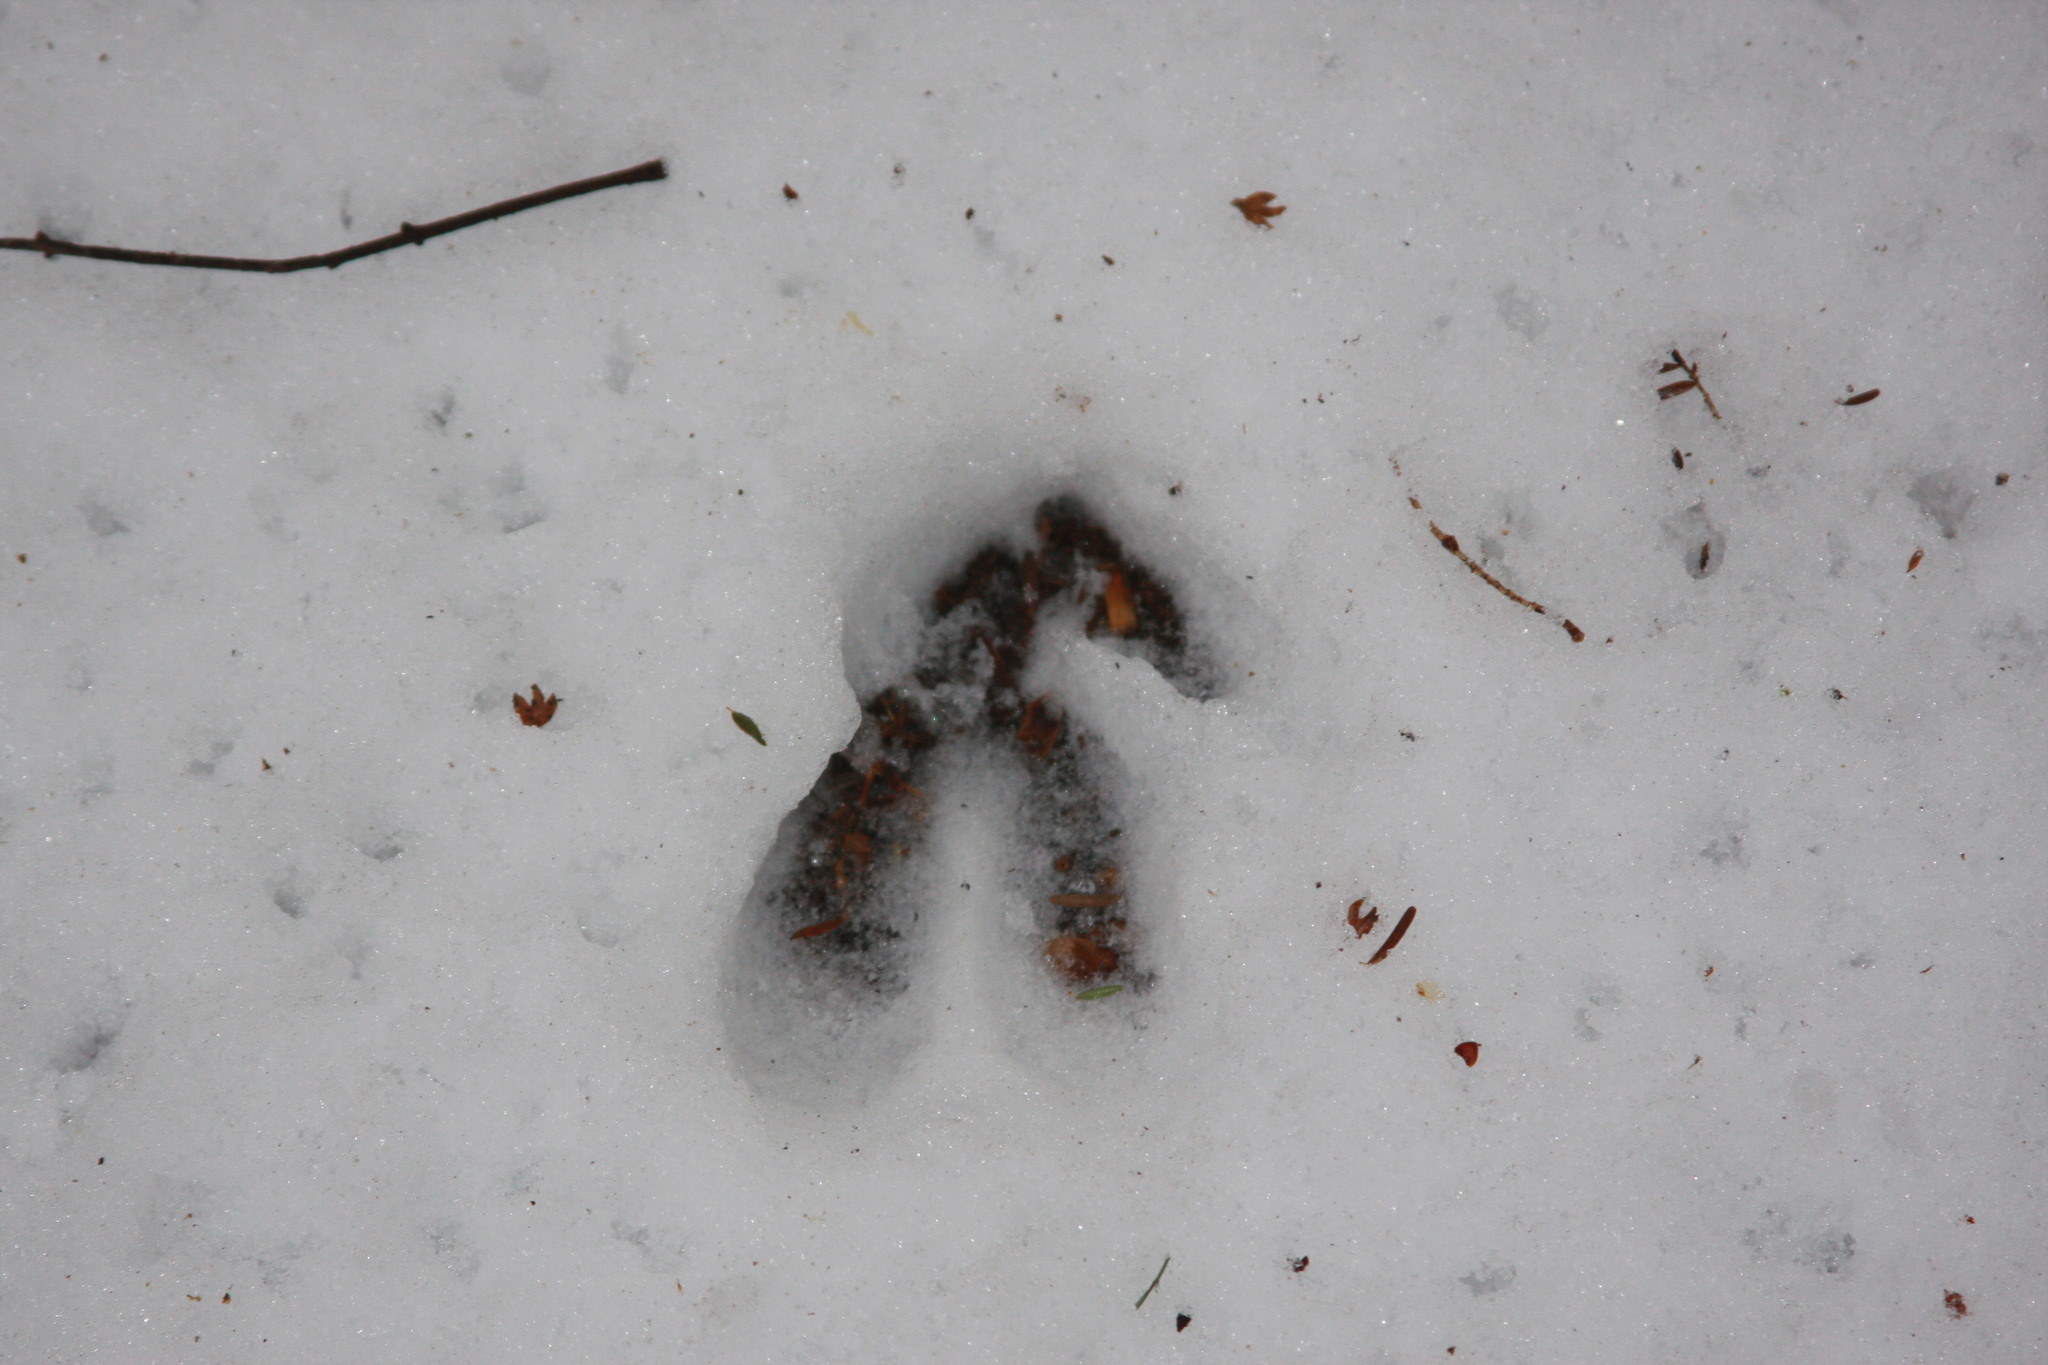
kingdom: Animalia
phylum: Chordata
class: Mammalia
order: Artiodactyla
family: Cervidae
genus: Odocoileus
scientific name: Odocoileus virginianus
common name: White-tailed deer
